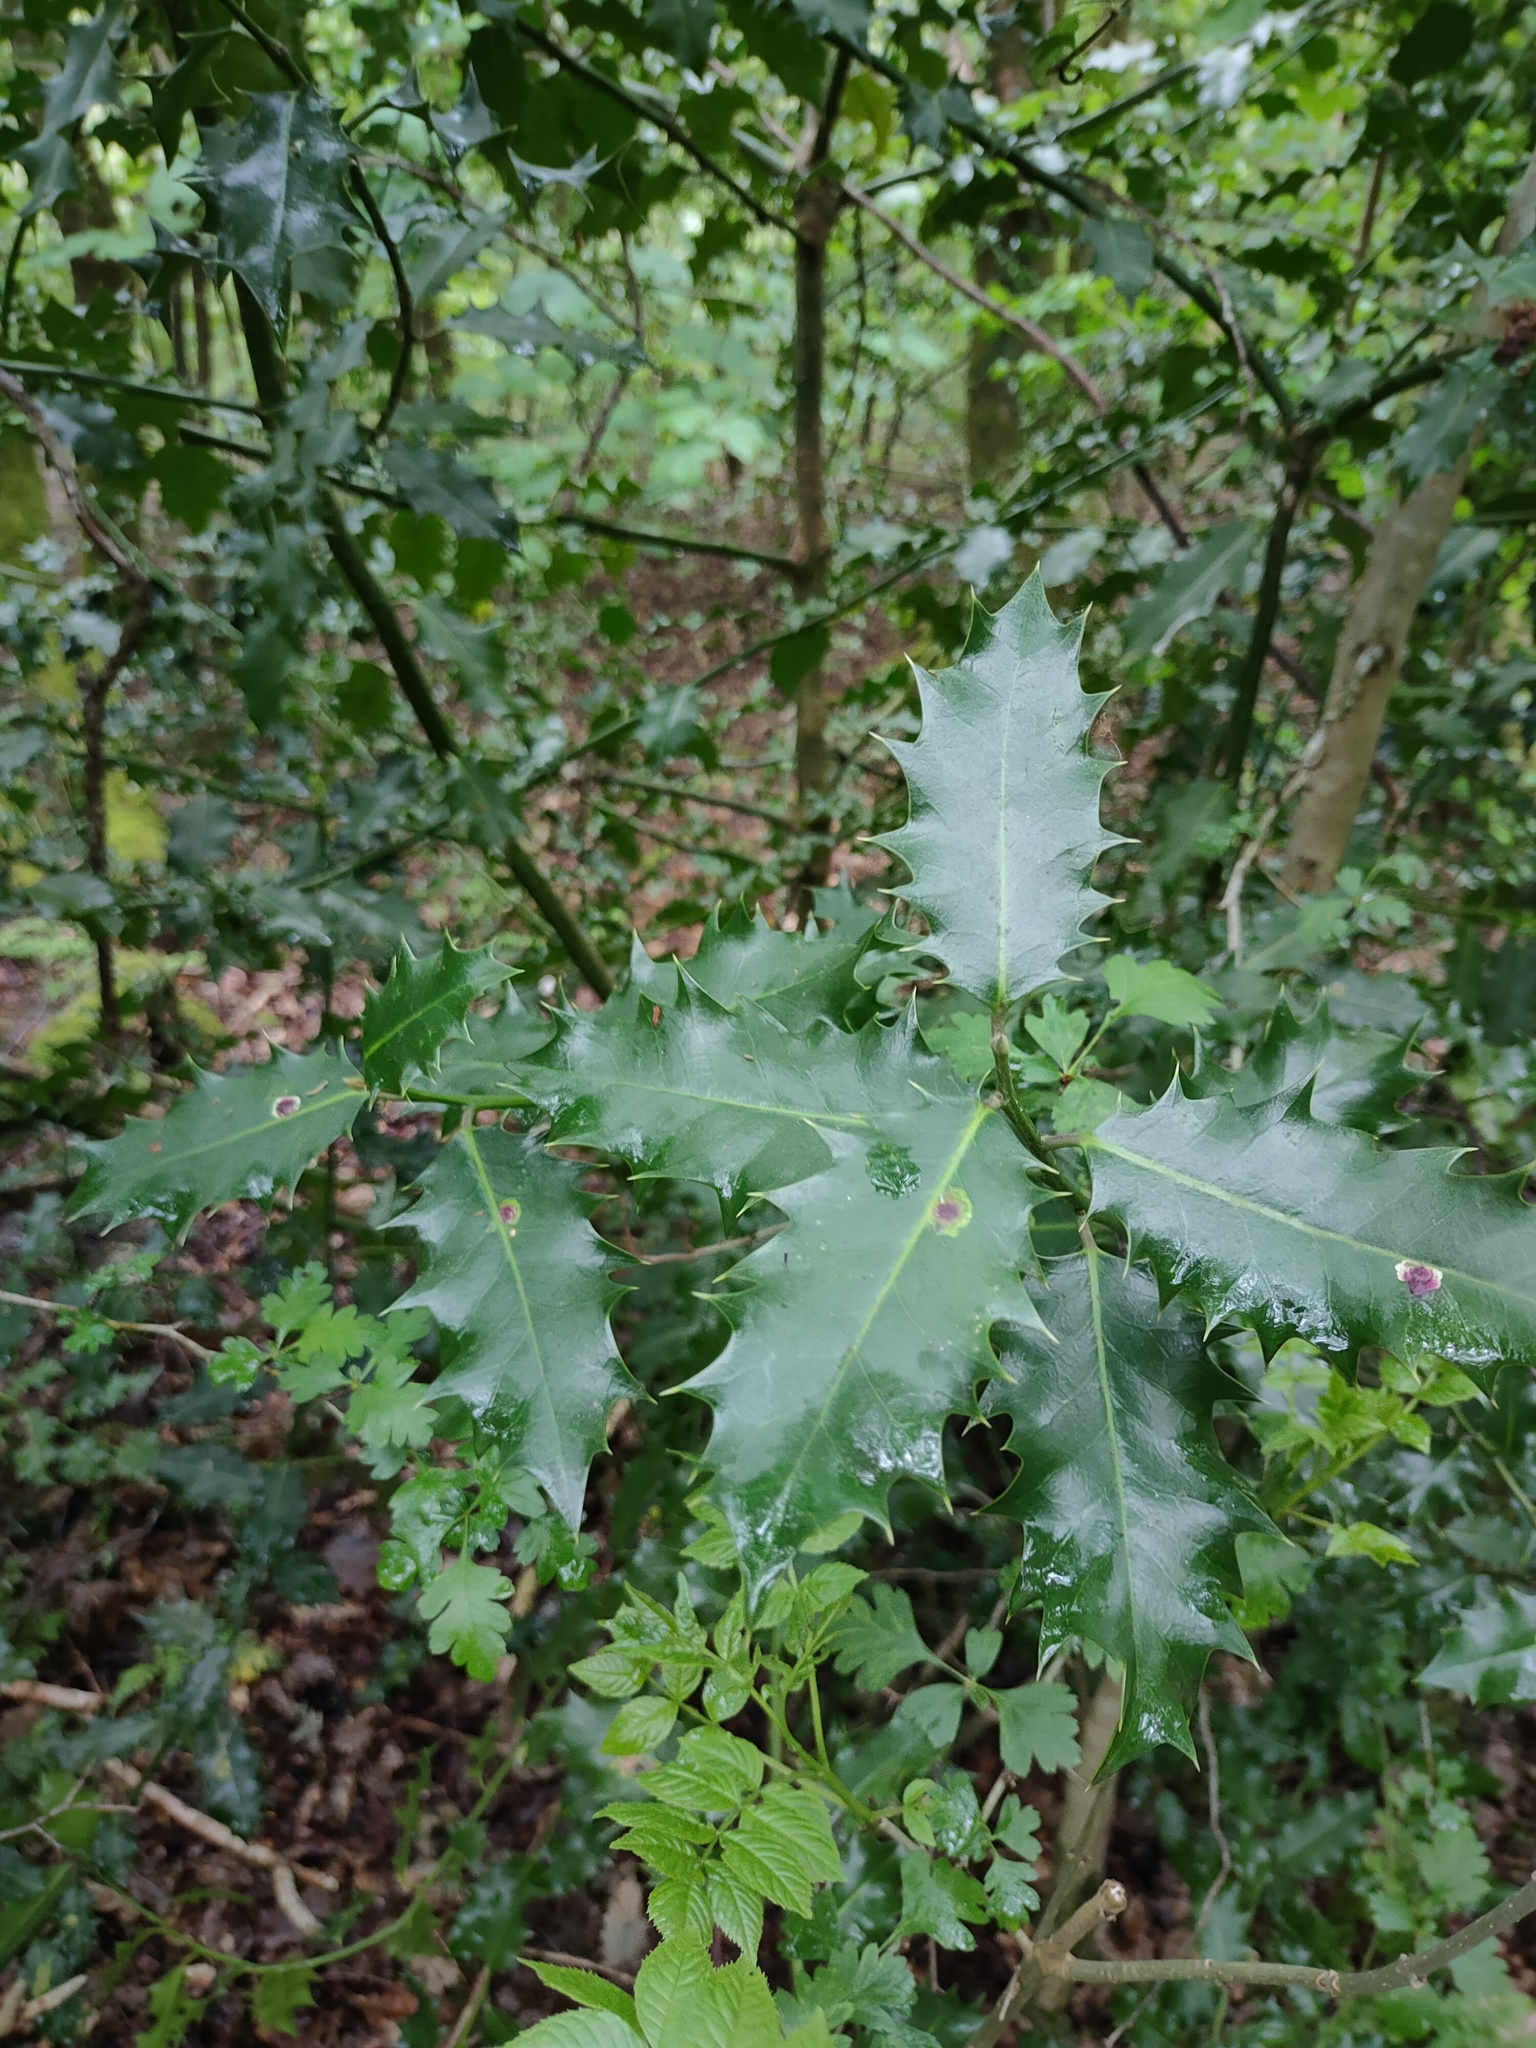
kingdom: Plantae
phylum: Tracheophyta
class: Magnoliopsida
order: Aquifoliales
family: Aquifoliaceae
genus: Ilex
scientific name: Ilex aquifolium
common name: English holly
